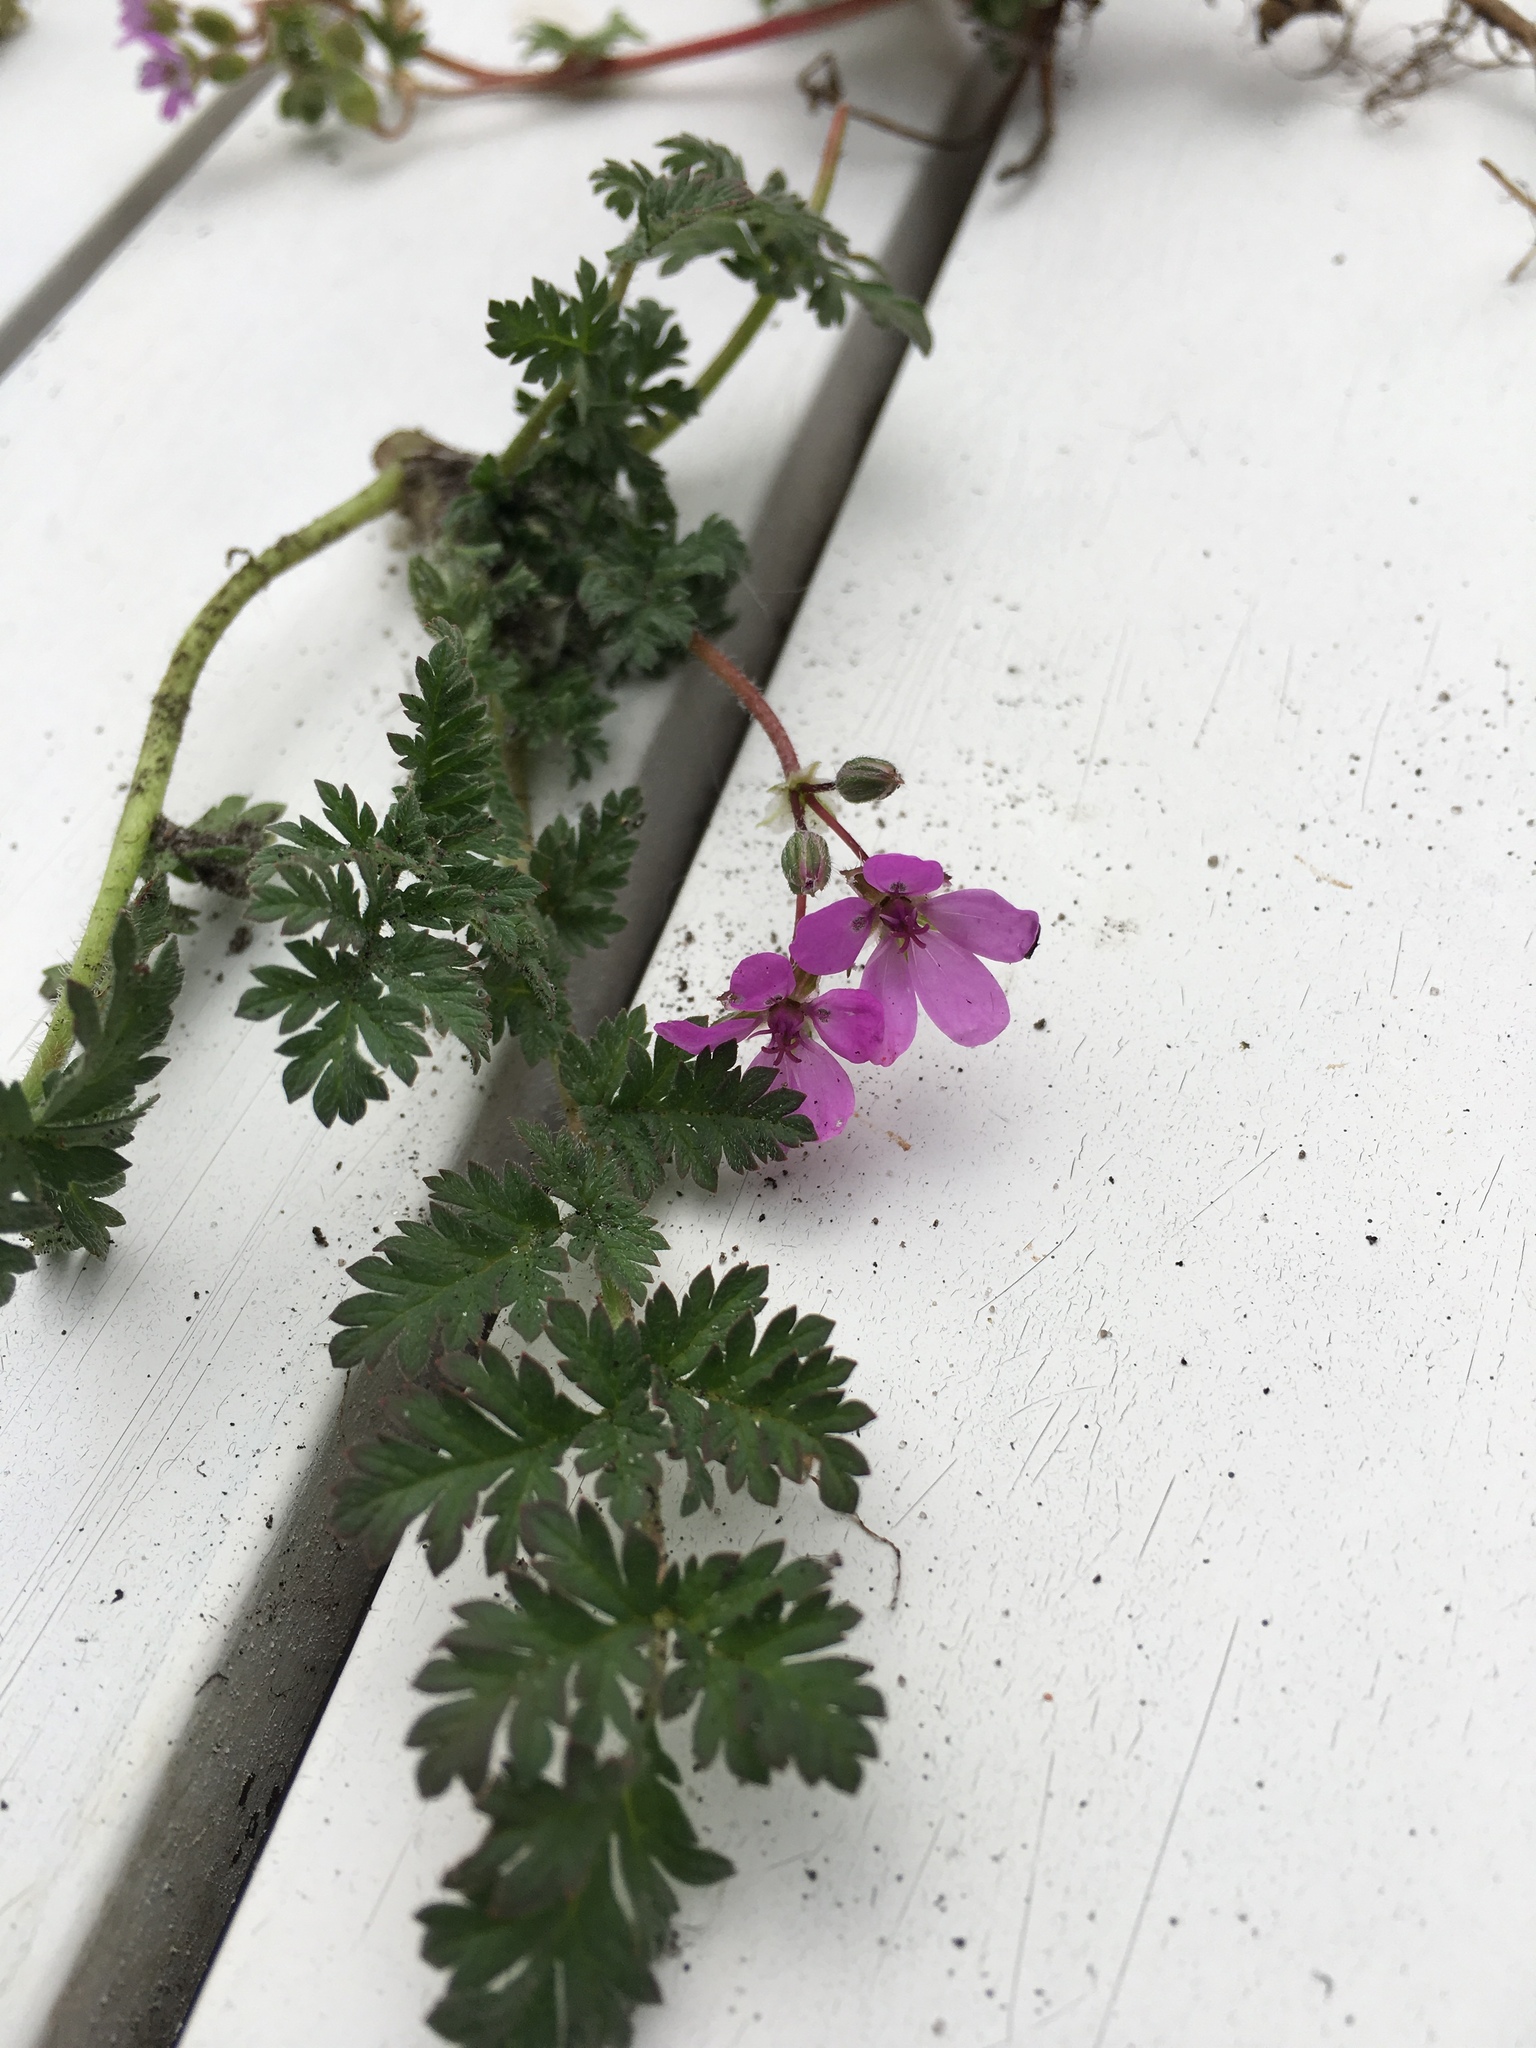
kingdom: Plantae
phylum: Tracheophyta
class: Magnoliopsida
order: Geraniales
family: Geraniaceae
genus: Erodium
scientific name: Erodium cicutarium
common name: Common stork's-bill
